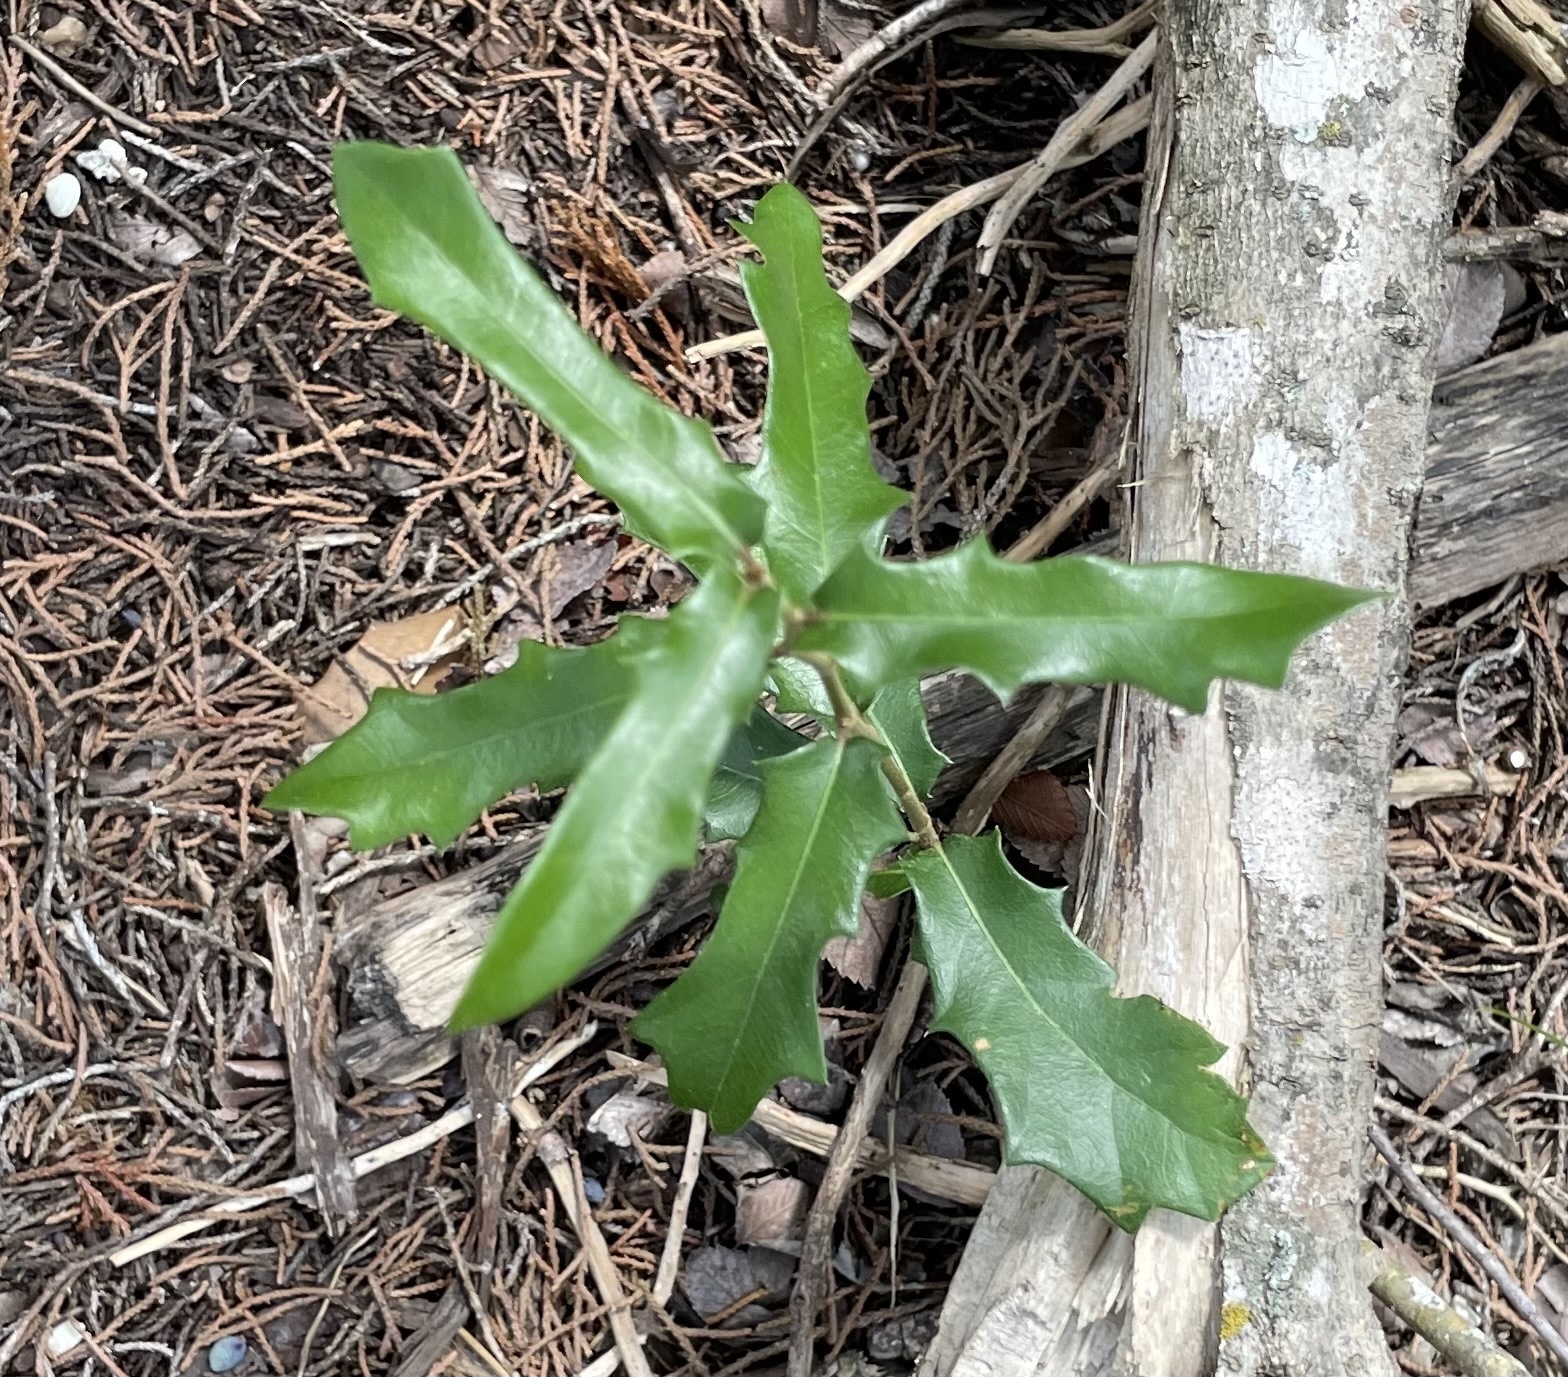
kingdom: Plantae
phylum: Tracheophyta
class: Magnoliopsida
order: Fagales
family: Fagaceae
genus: Quercus
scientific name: Quercus fusiformis
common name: Texas live oak
